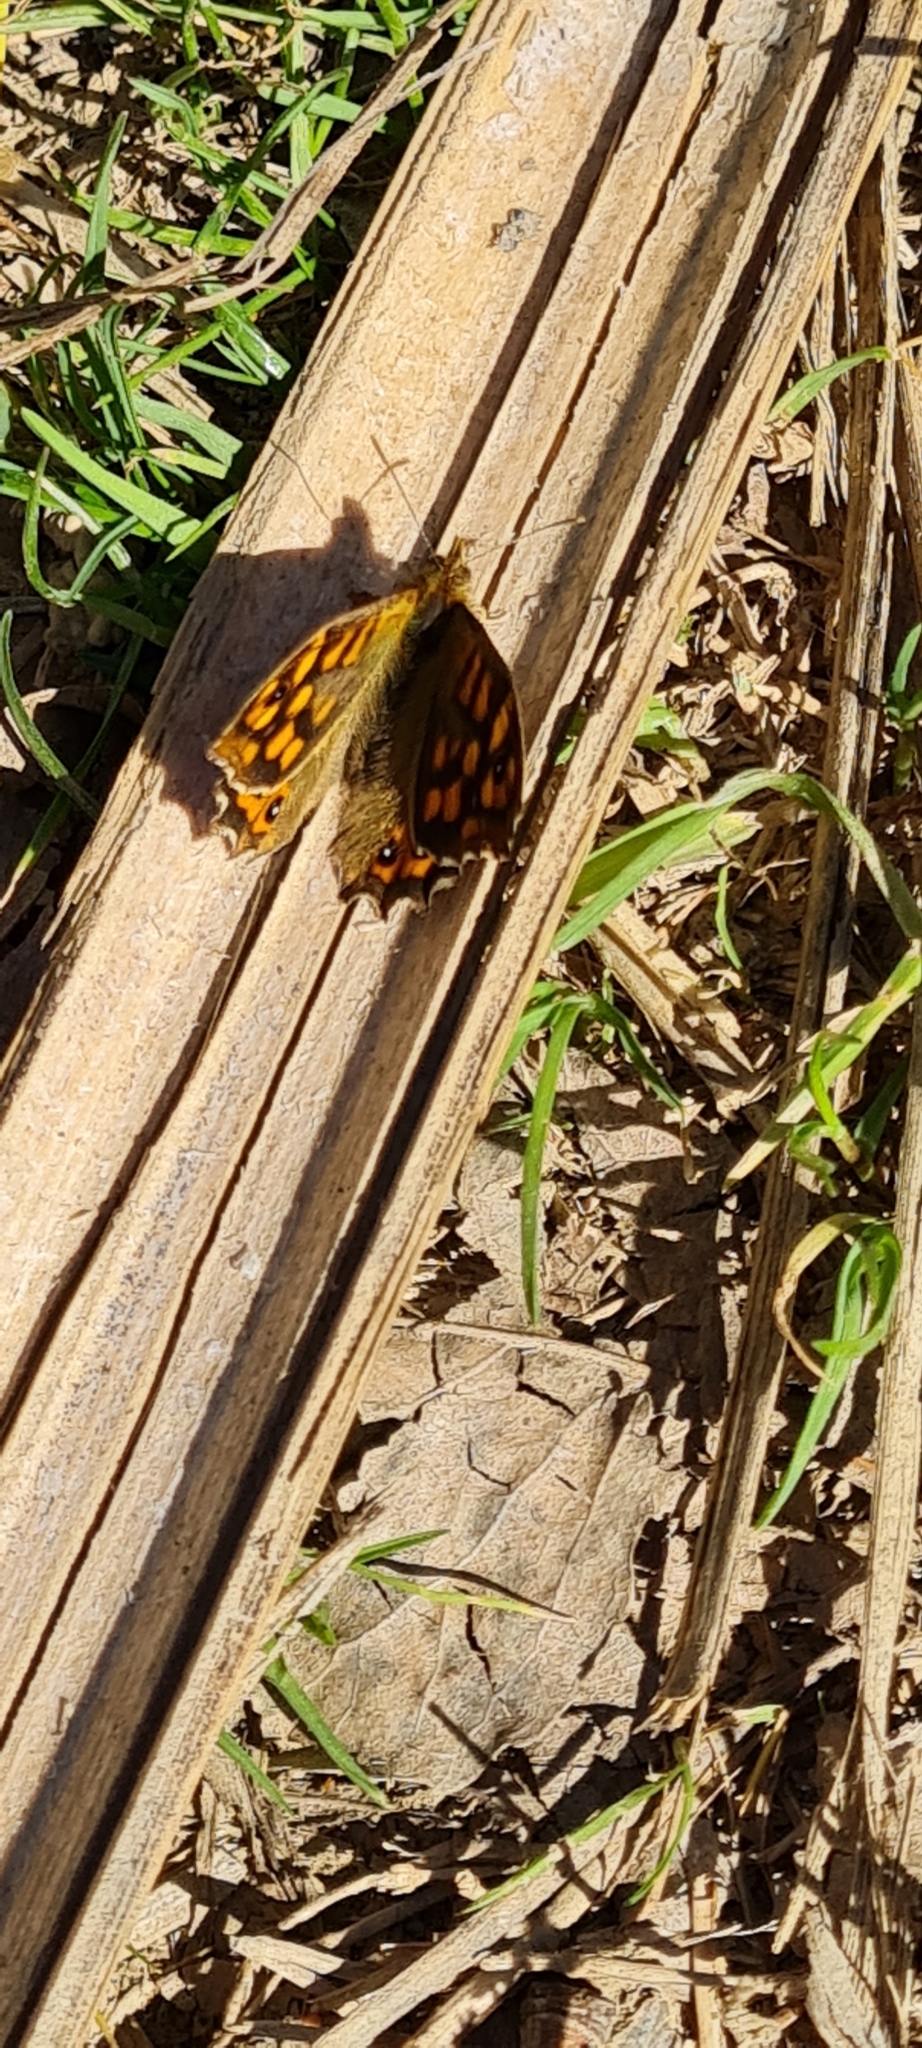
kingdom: Animalia
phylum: Arthropoda
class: Insecta
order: Lepidoptera
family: Nymphalidae
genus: Pararge
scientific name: Pararge aegeria
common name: Speckled wood
